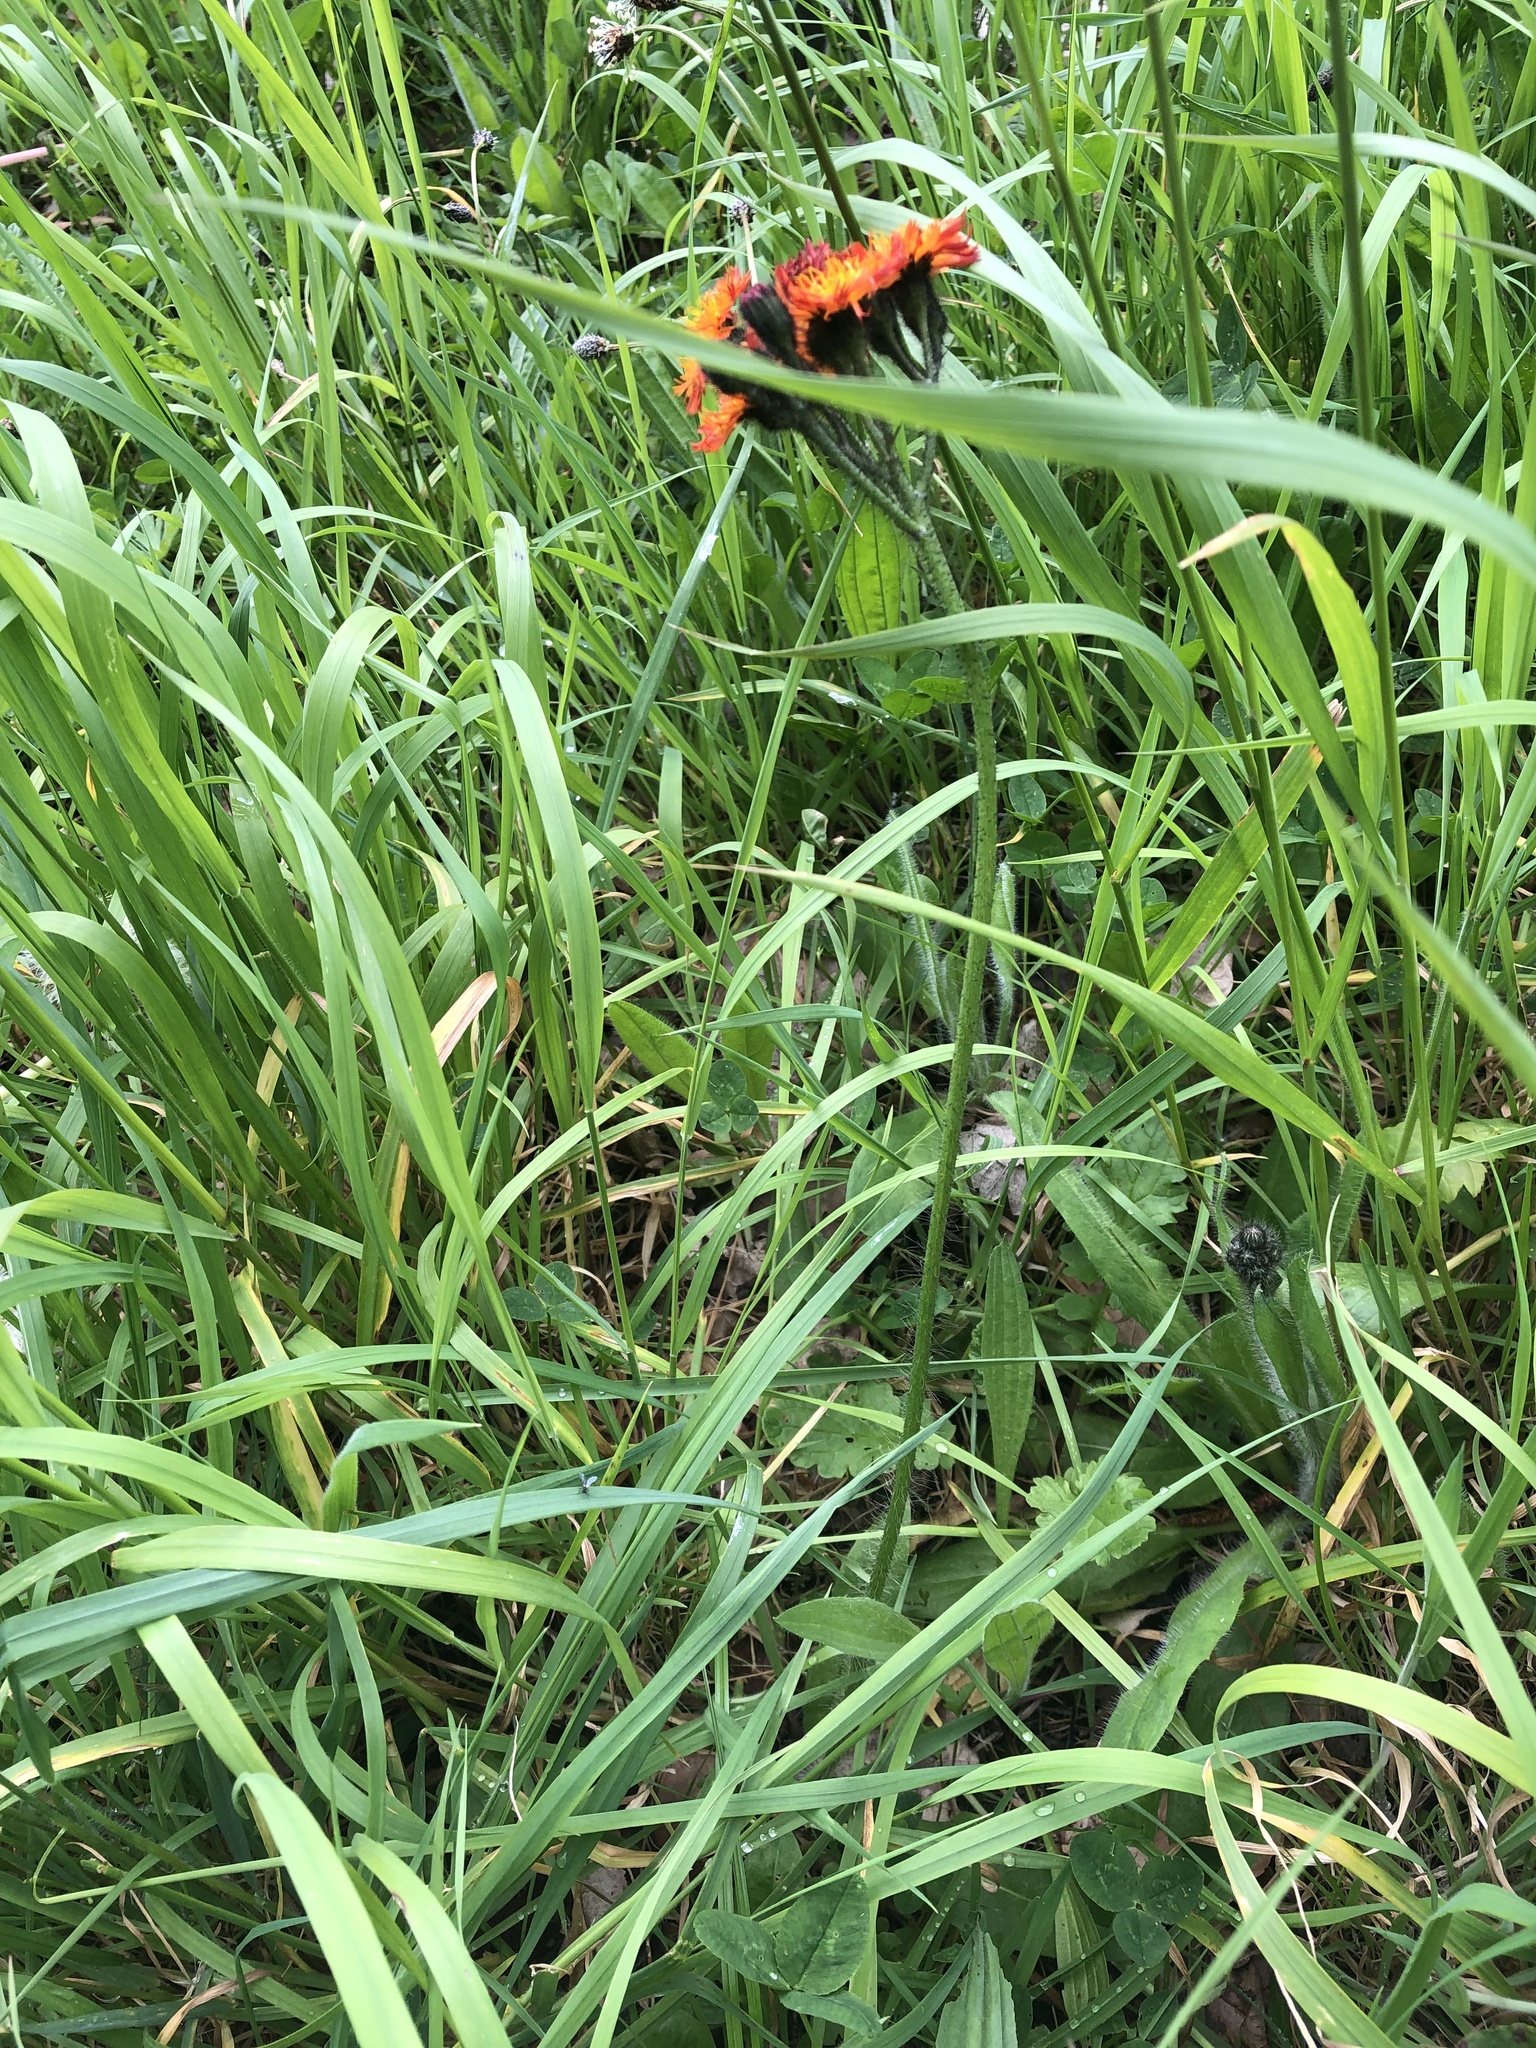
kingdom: Plantae
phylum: Tracheophyta
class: Magnoliopsida
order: Asterales
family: Asteraceae
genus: Pilosella
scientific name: Pilosella aurantiaca
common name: Fox-and-cubs
